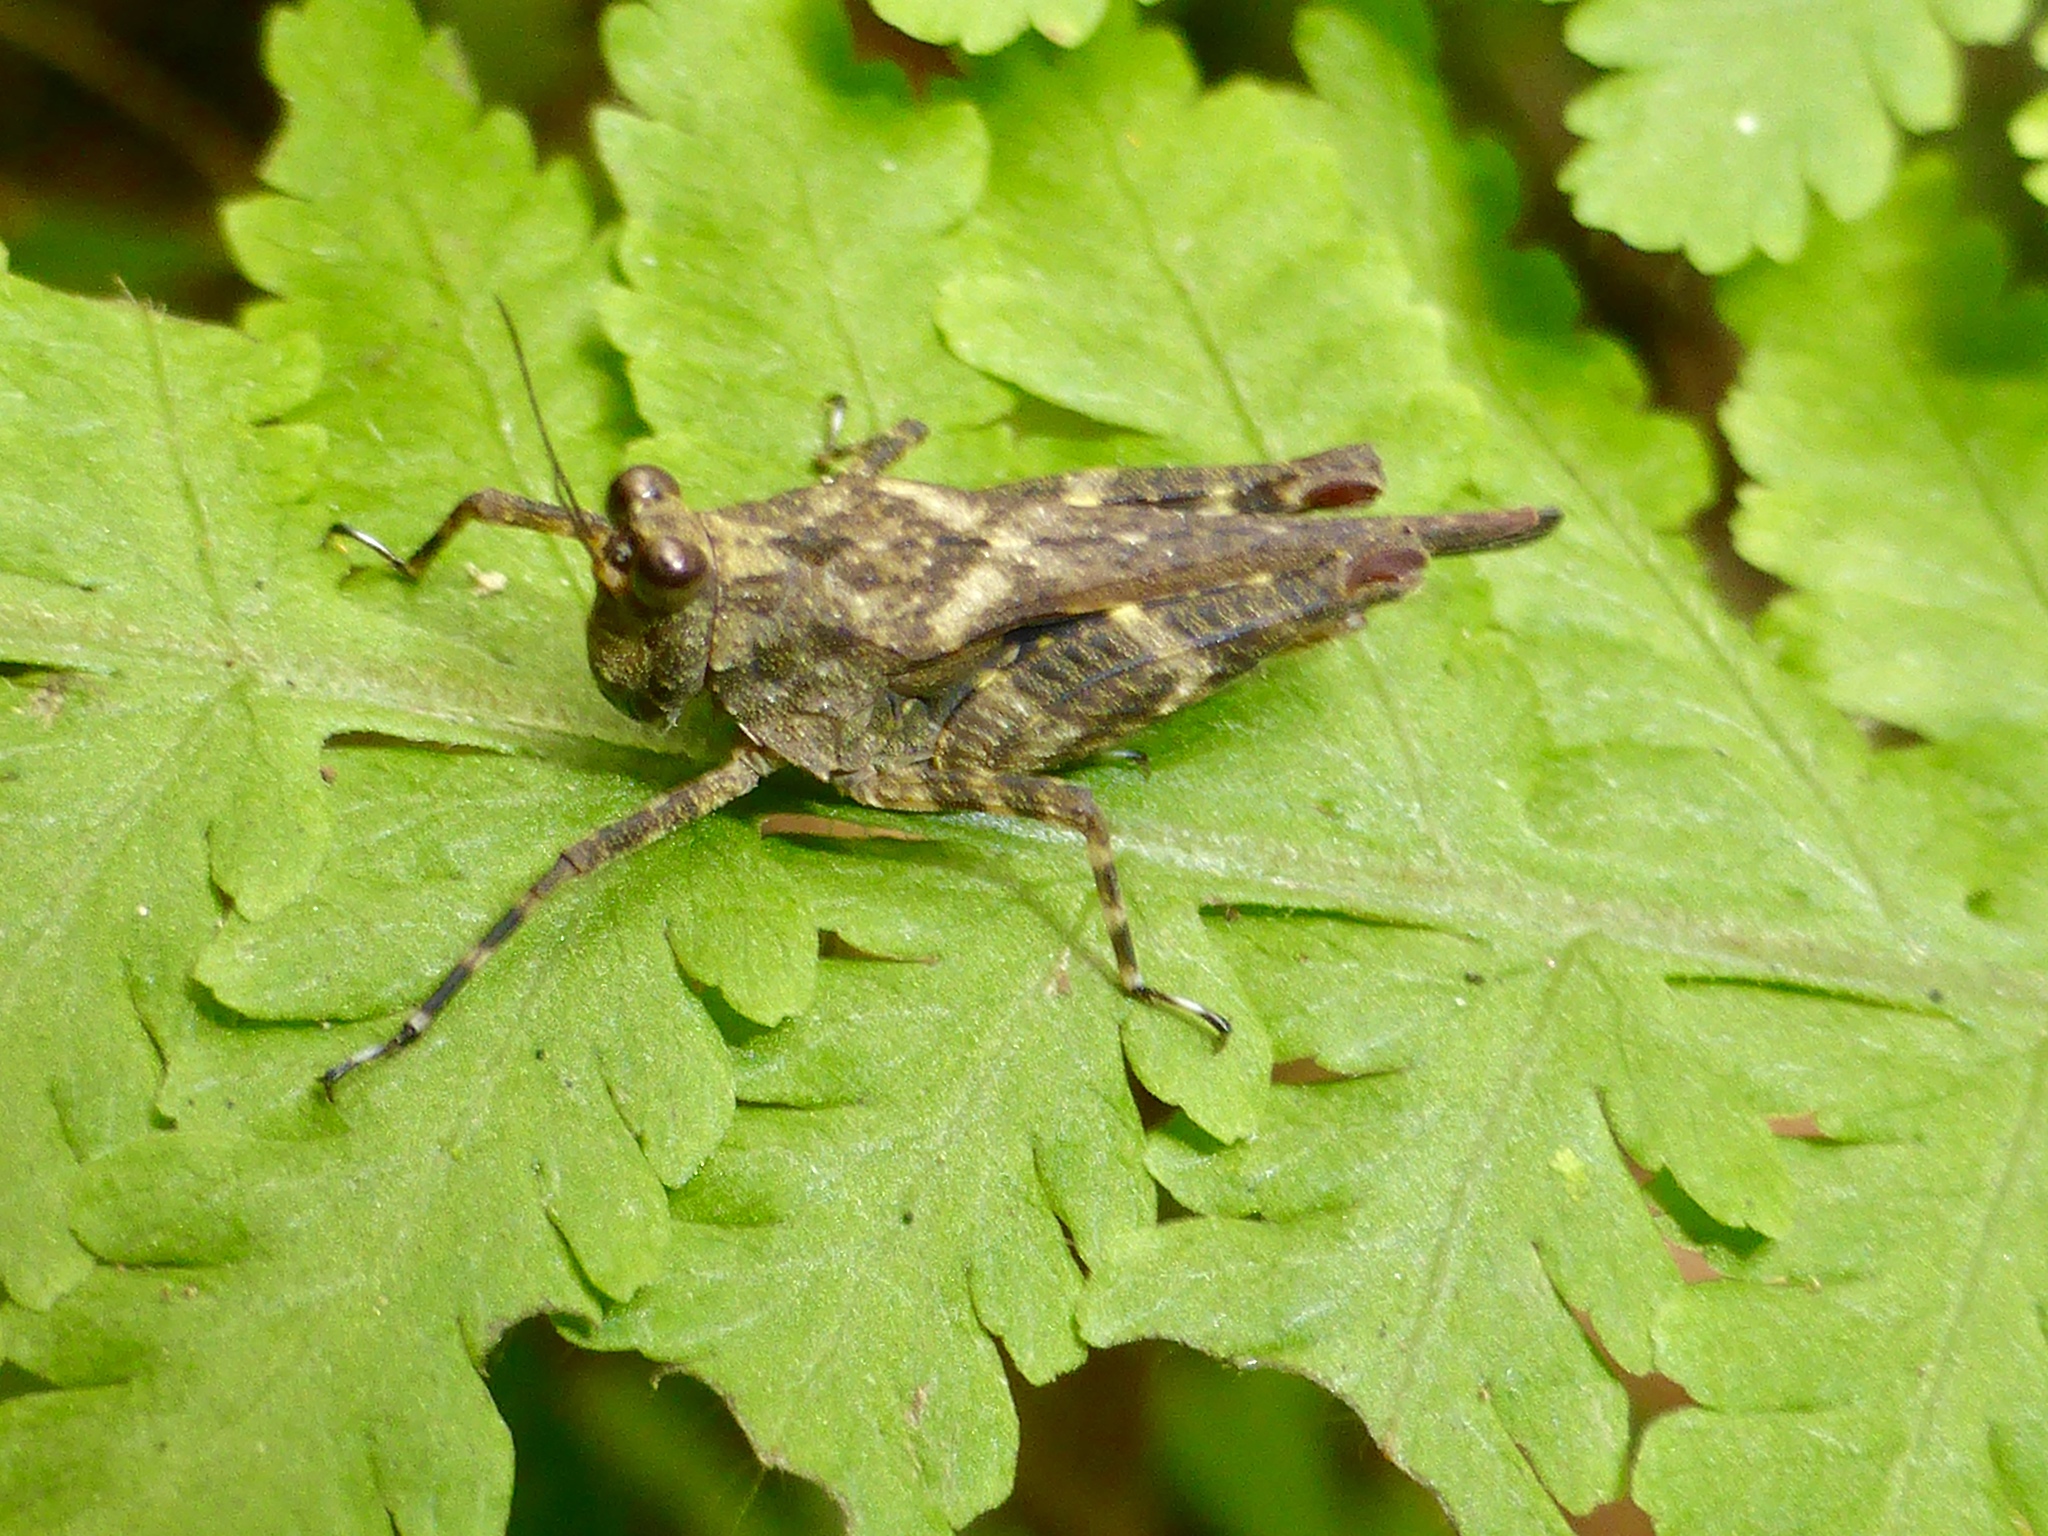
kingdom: Animalia
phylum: Arthropoda
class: Insecta
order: Orthoptera
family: Tetrigidae
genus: Eucriotettix
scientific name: Eucriotettix thienemanni
